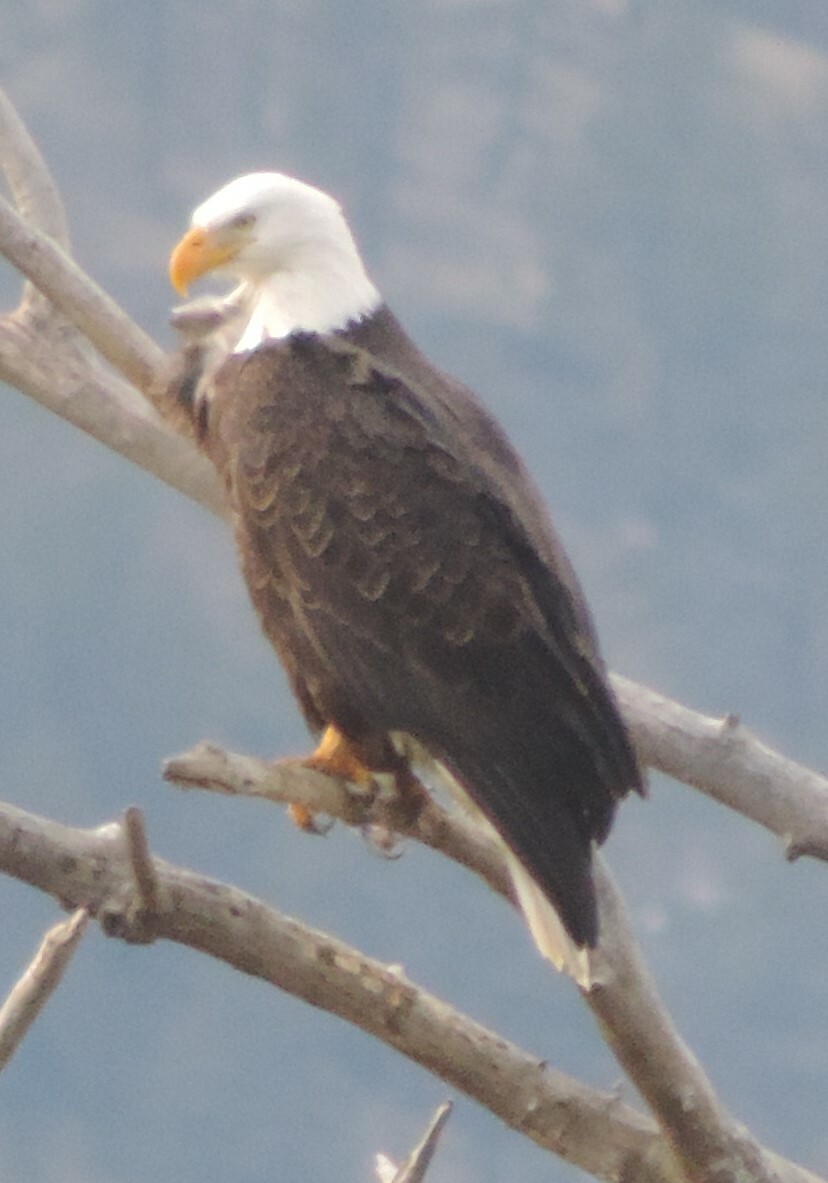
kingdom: Animalia
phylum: Chordata
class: Aves
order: Accipitriformes
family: Accipitridae
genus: Haliaeetus
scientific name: Haliaeetus leucocephalus
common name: Bald eagle
